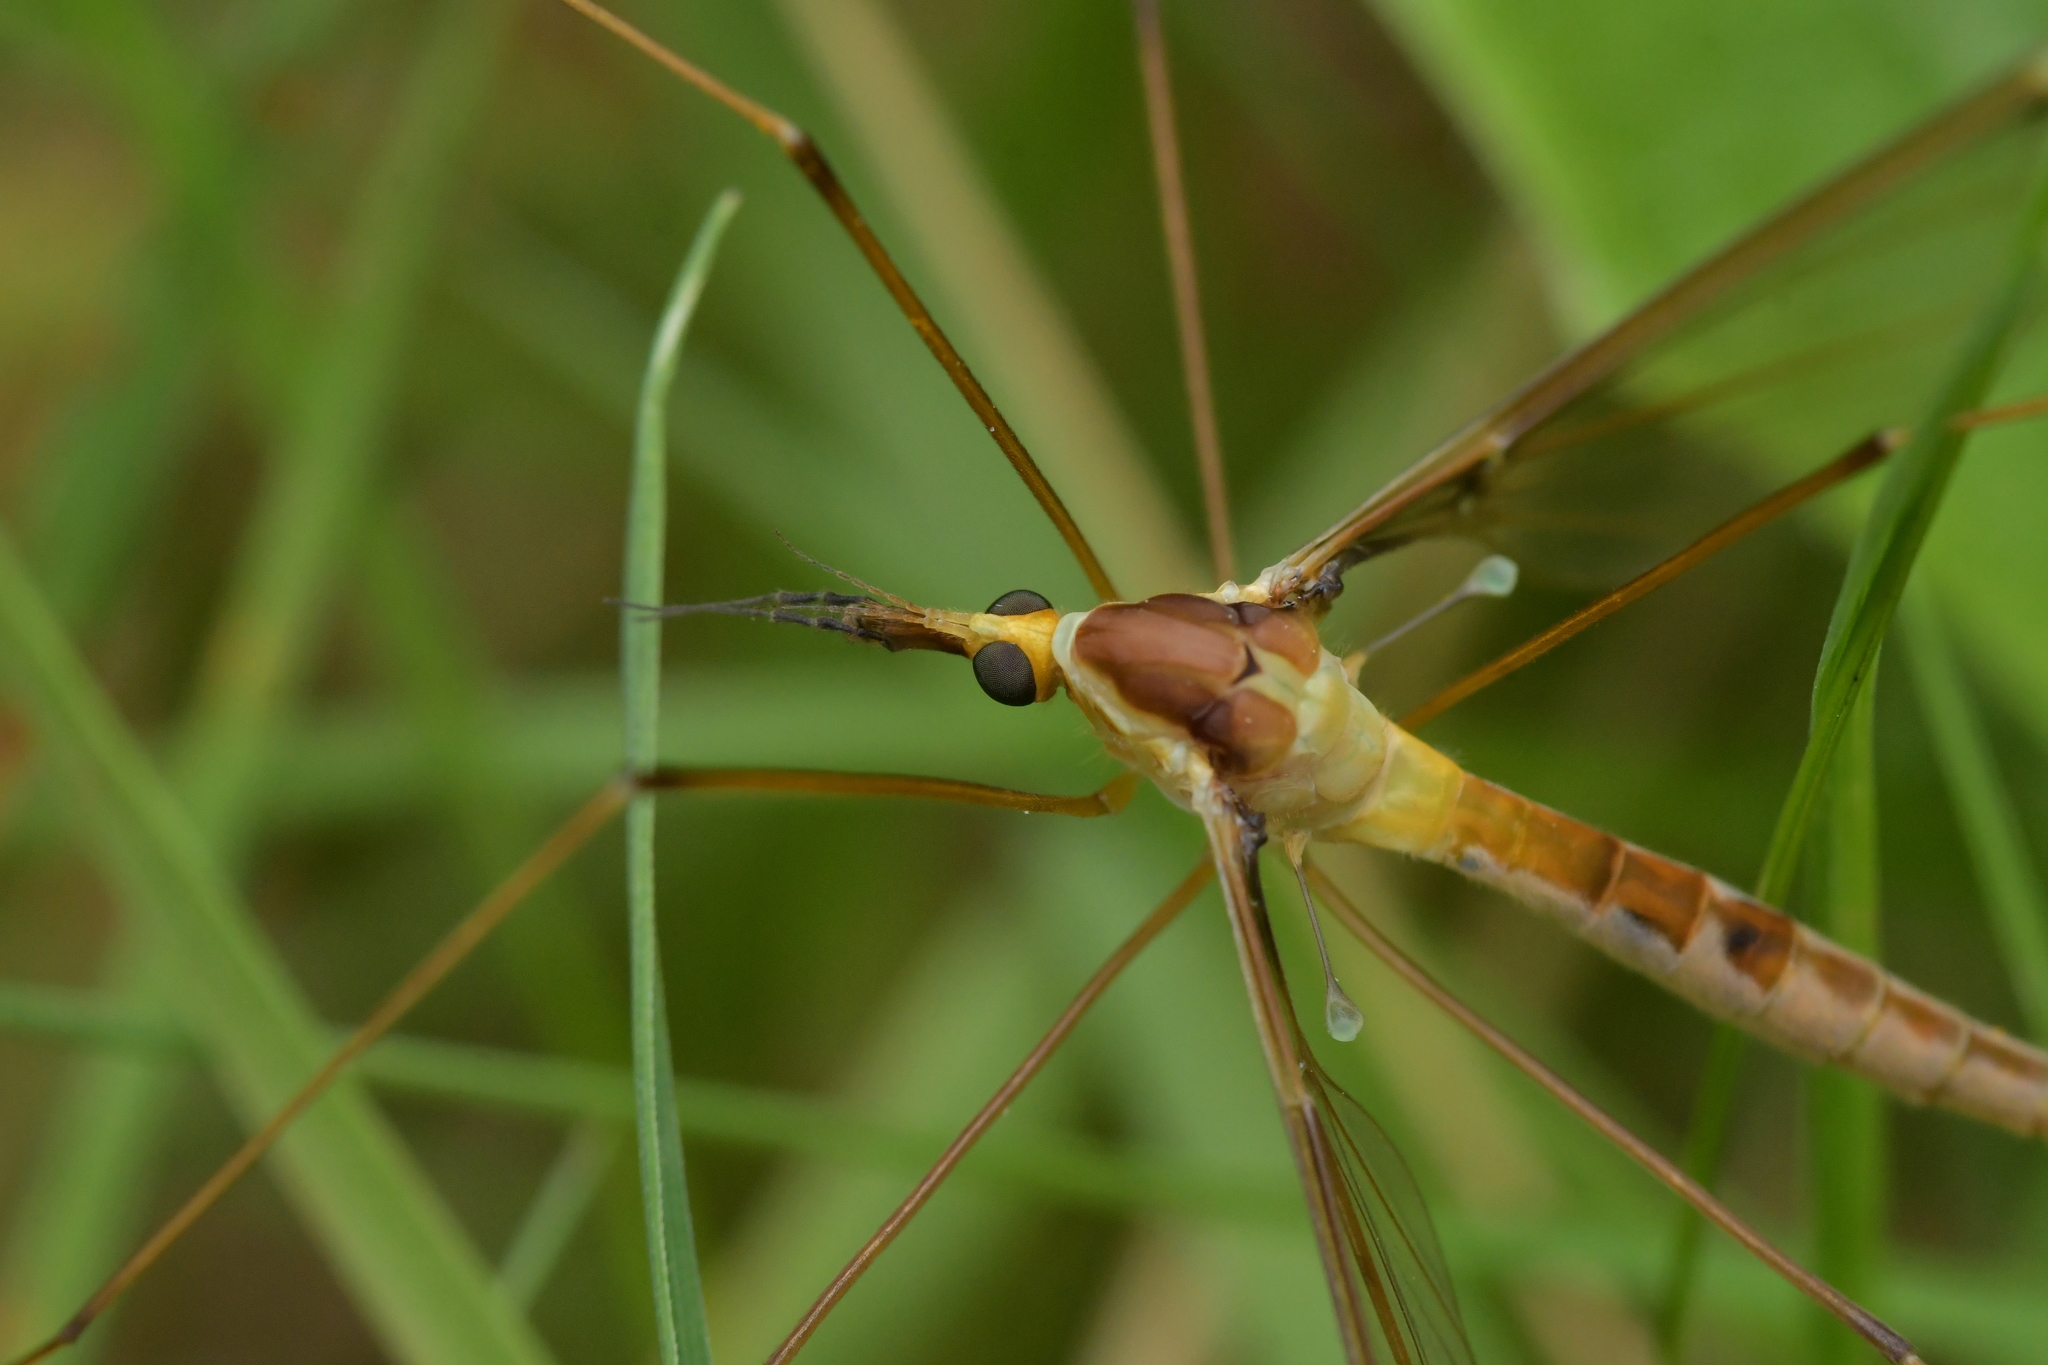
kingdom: Animalia
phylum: Arthropoda
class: Insecta
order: Diptera
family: Tipulidae
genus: Leptotarsus
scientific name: Leptotarsus albistigma
